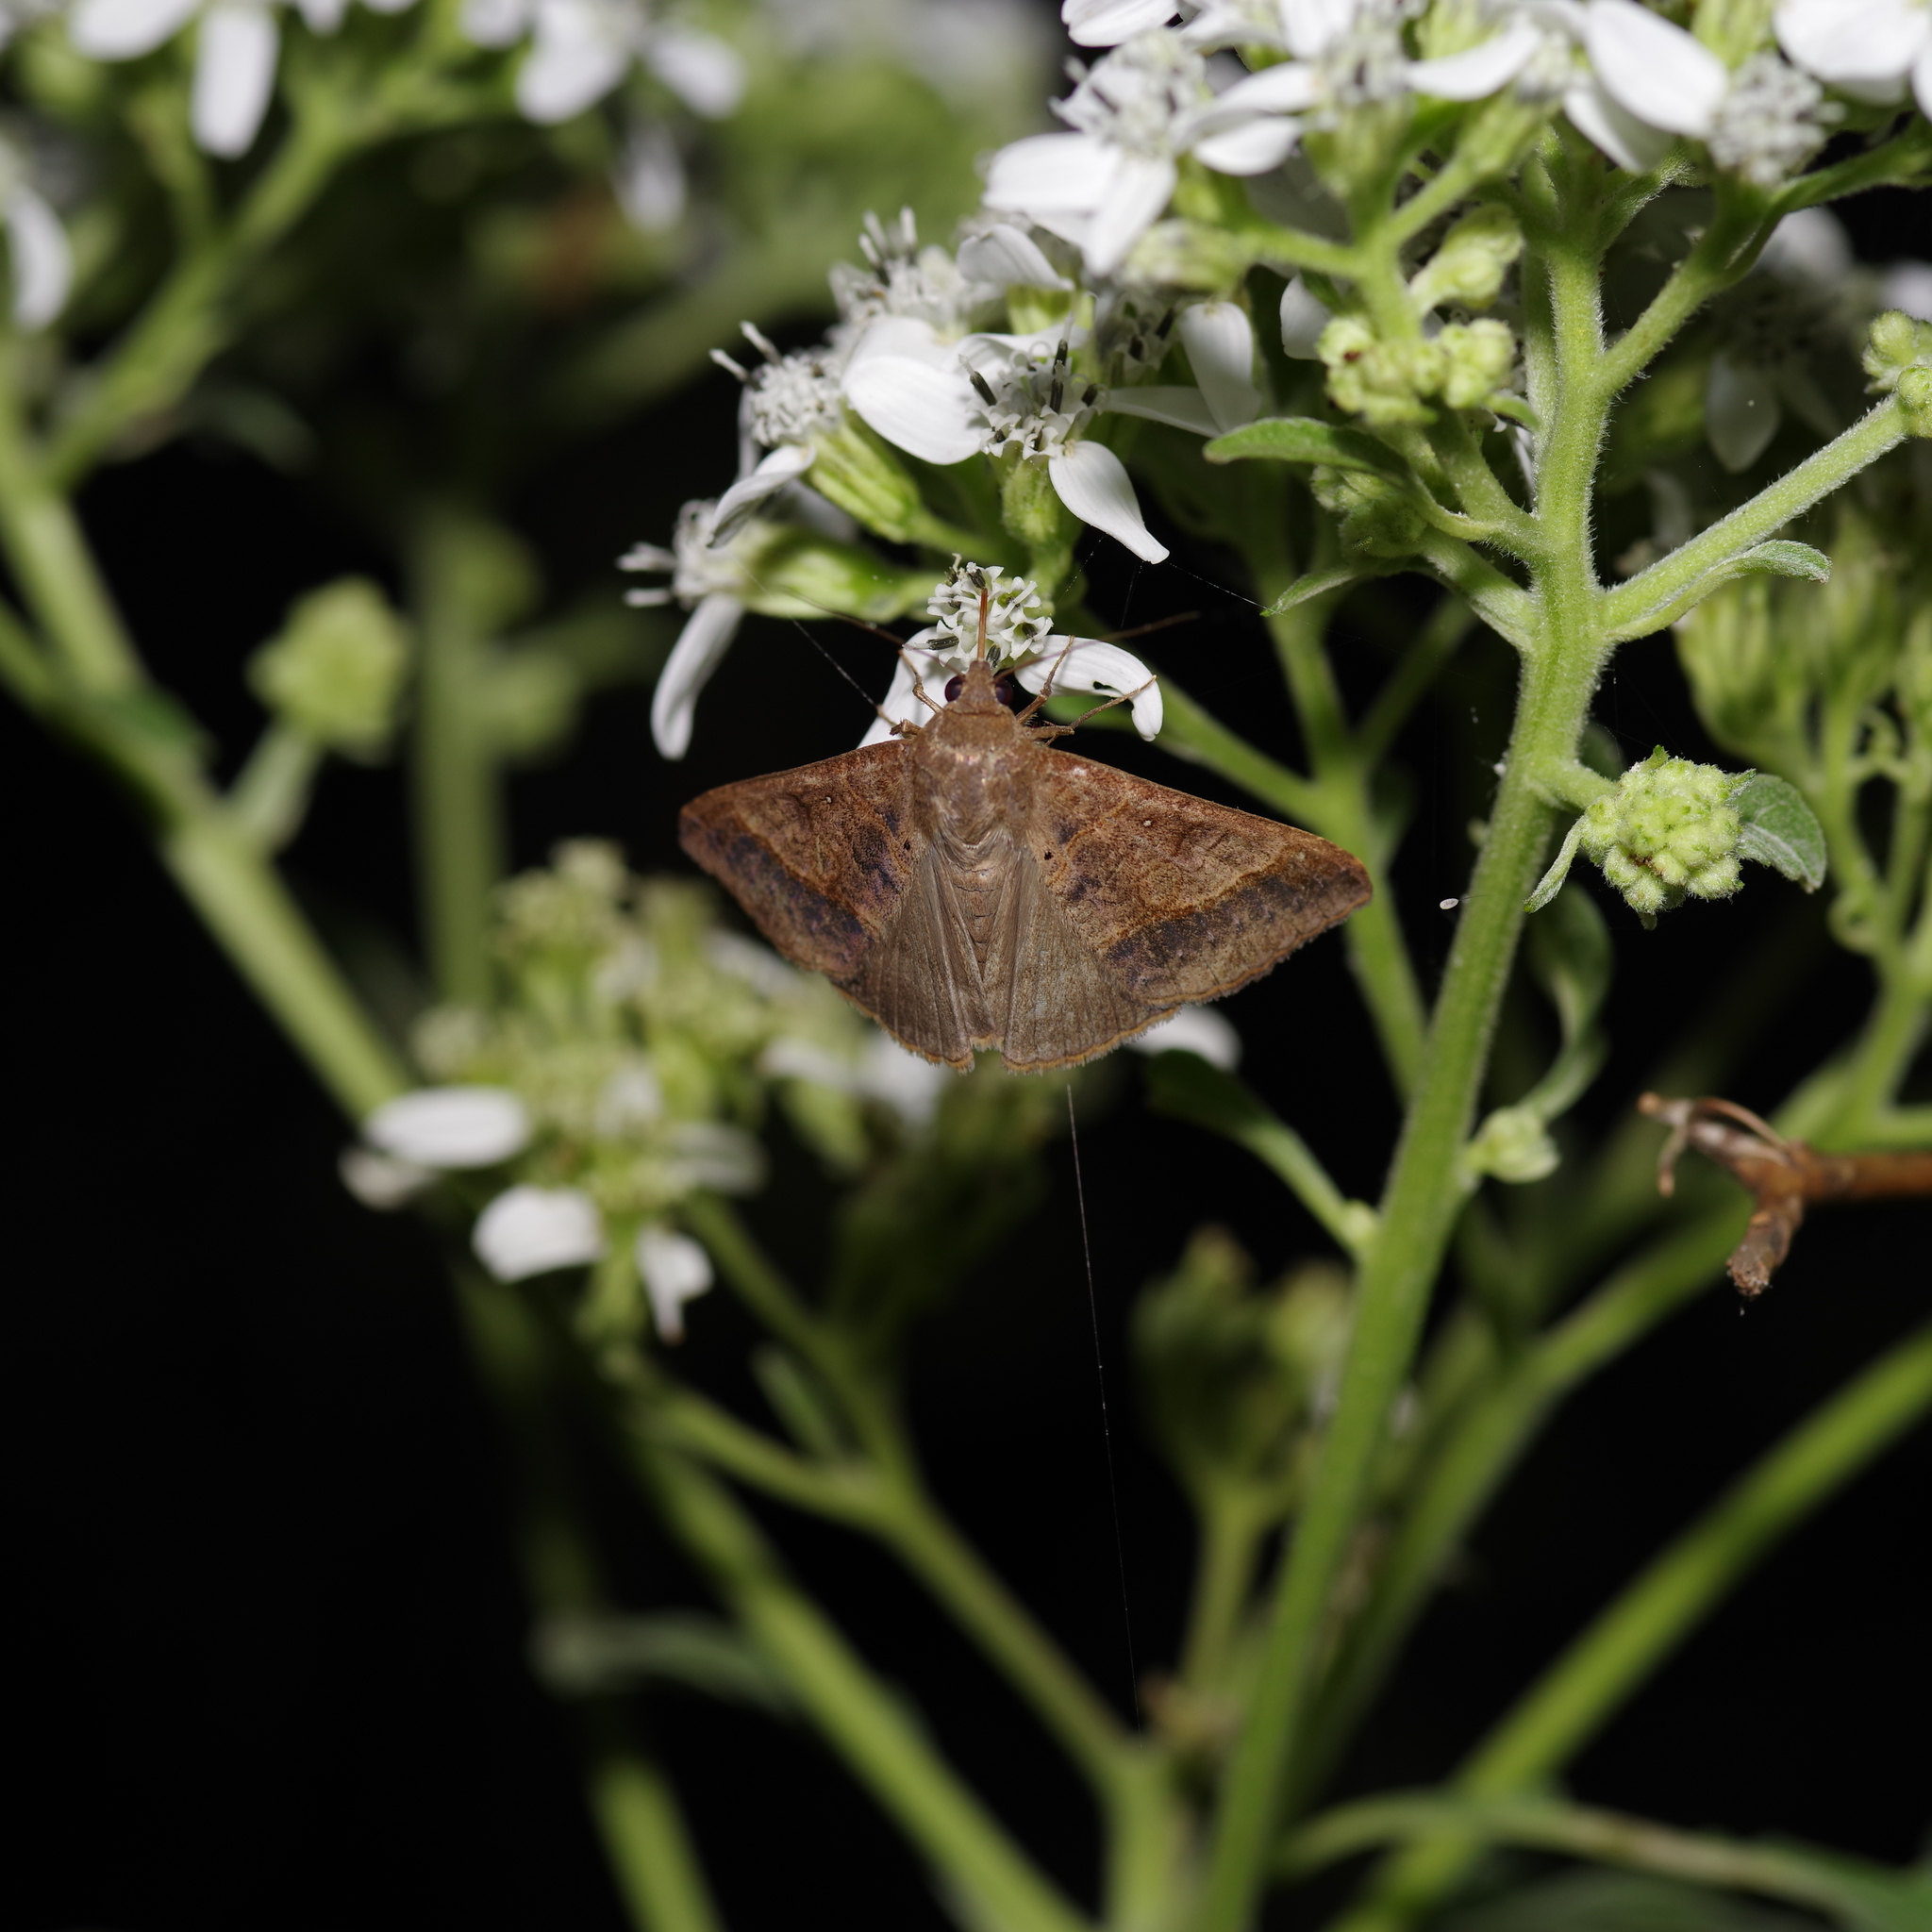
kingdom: Animalia
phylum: Arthropoda
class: Insecta
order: Lepidoptera
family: Erebidae
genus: Mocis
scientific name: Mocis latipes
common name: Striped grass looper
